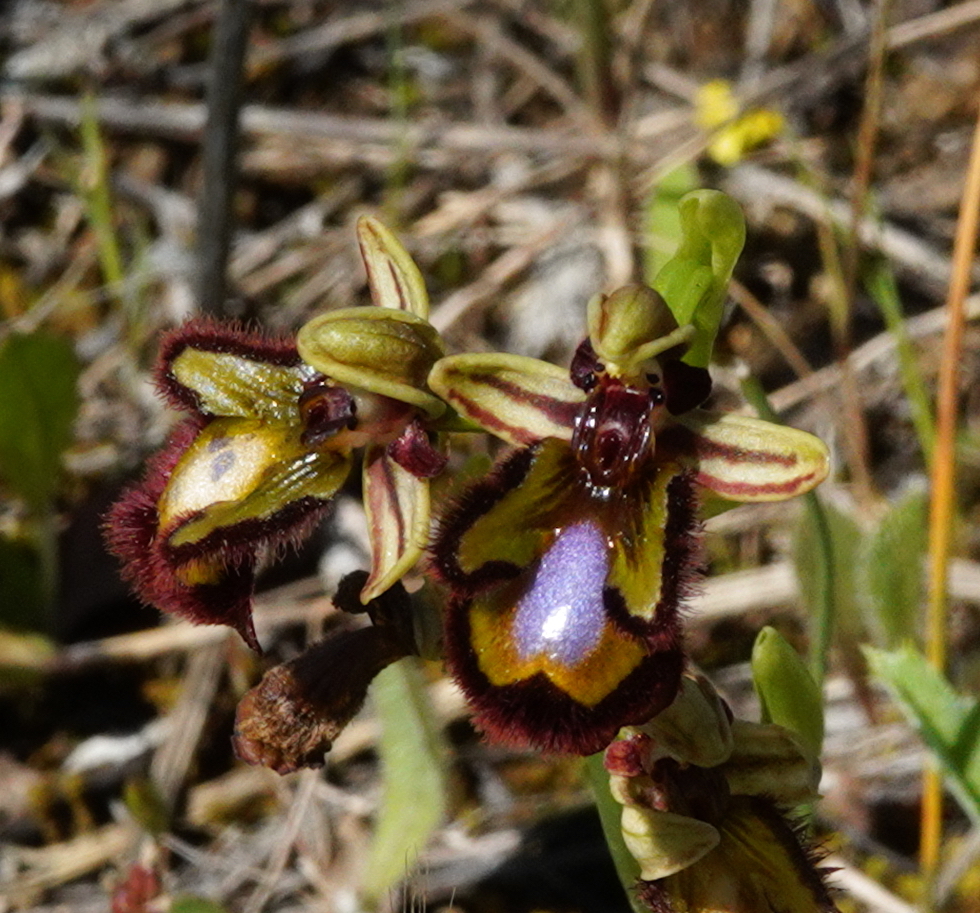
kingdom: Plantae
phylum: Tracheophyta
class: Liliopsida
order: Asparagales
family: Orchidaceae
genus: Ophrys
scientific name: Ophrys speculum
